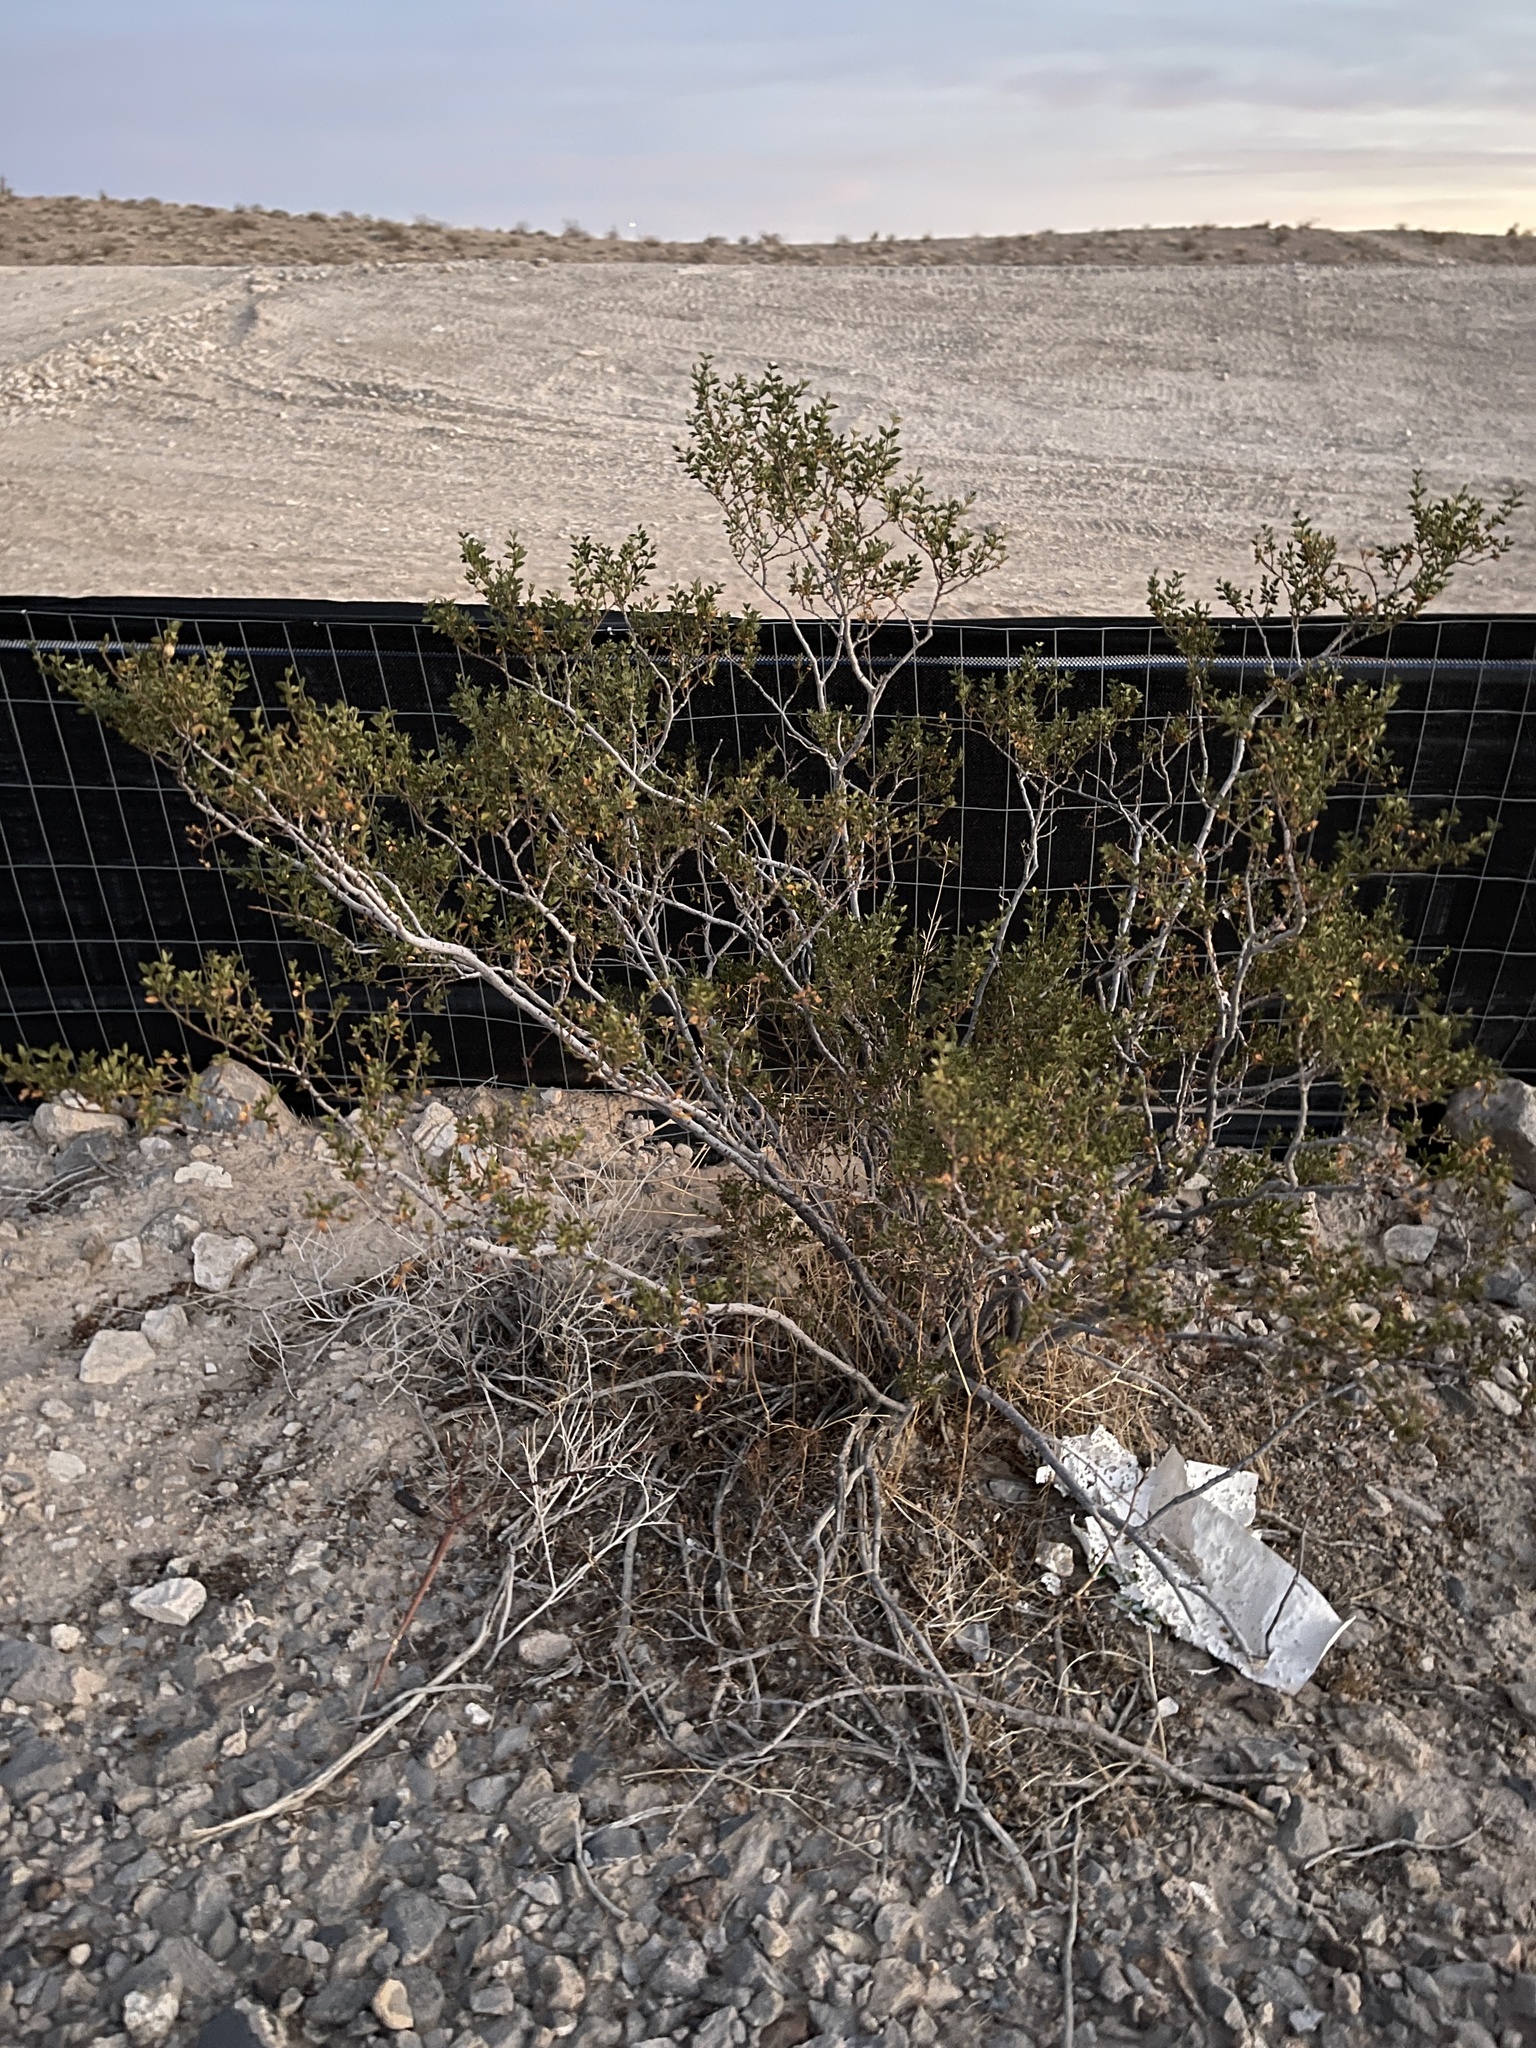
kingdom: Plantae
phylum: Tracheophyta
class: Magnoliopsida
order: Zygophyllales
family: Zygophyllaceae
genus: Larrea
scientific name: Larrea tridentata
